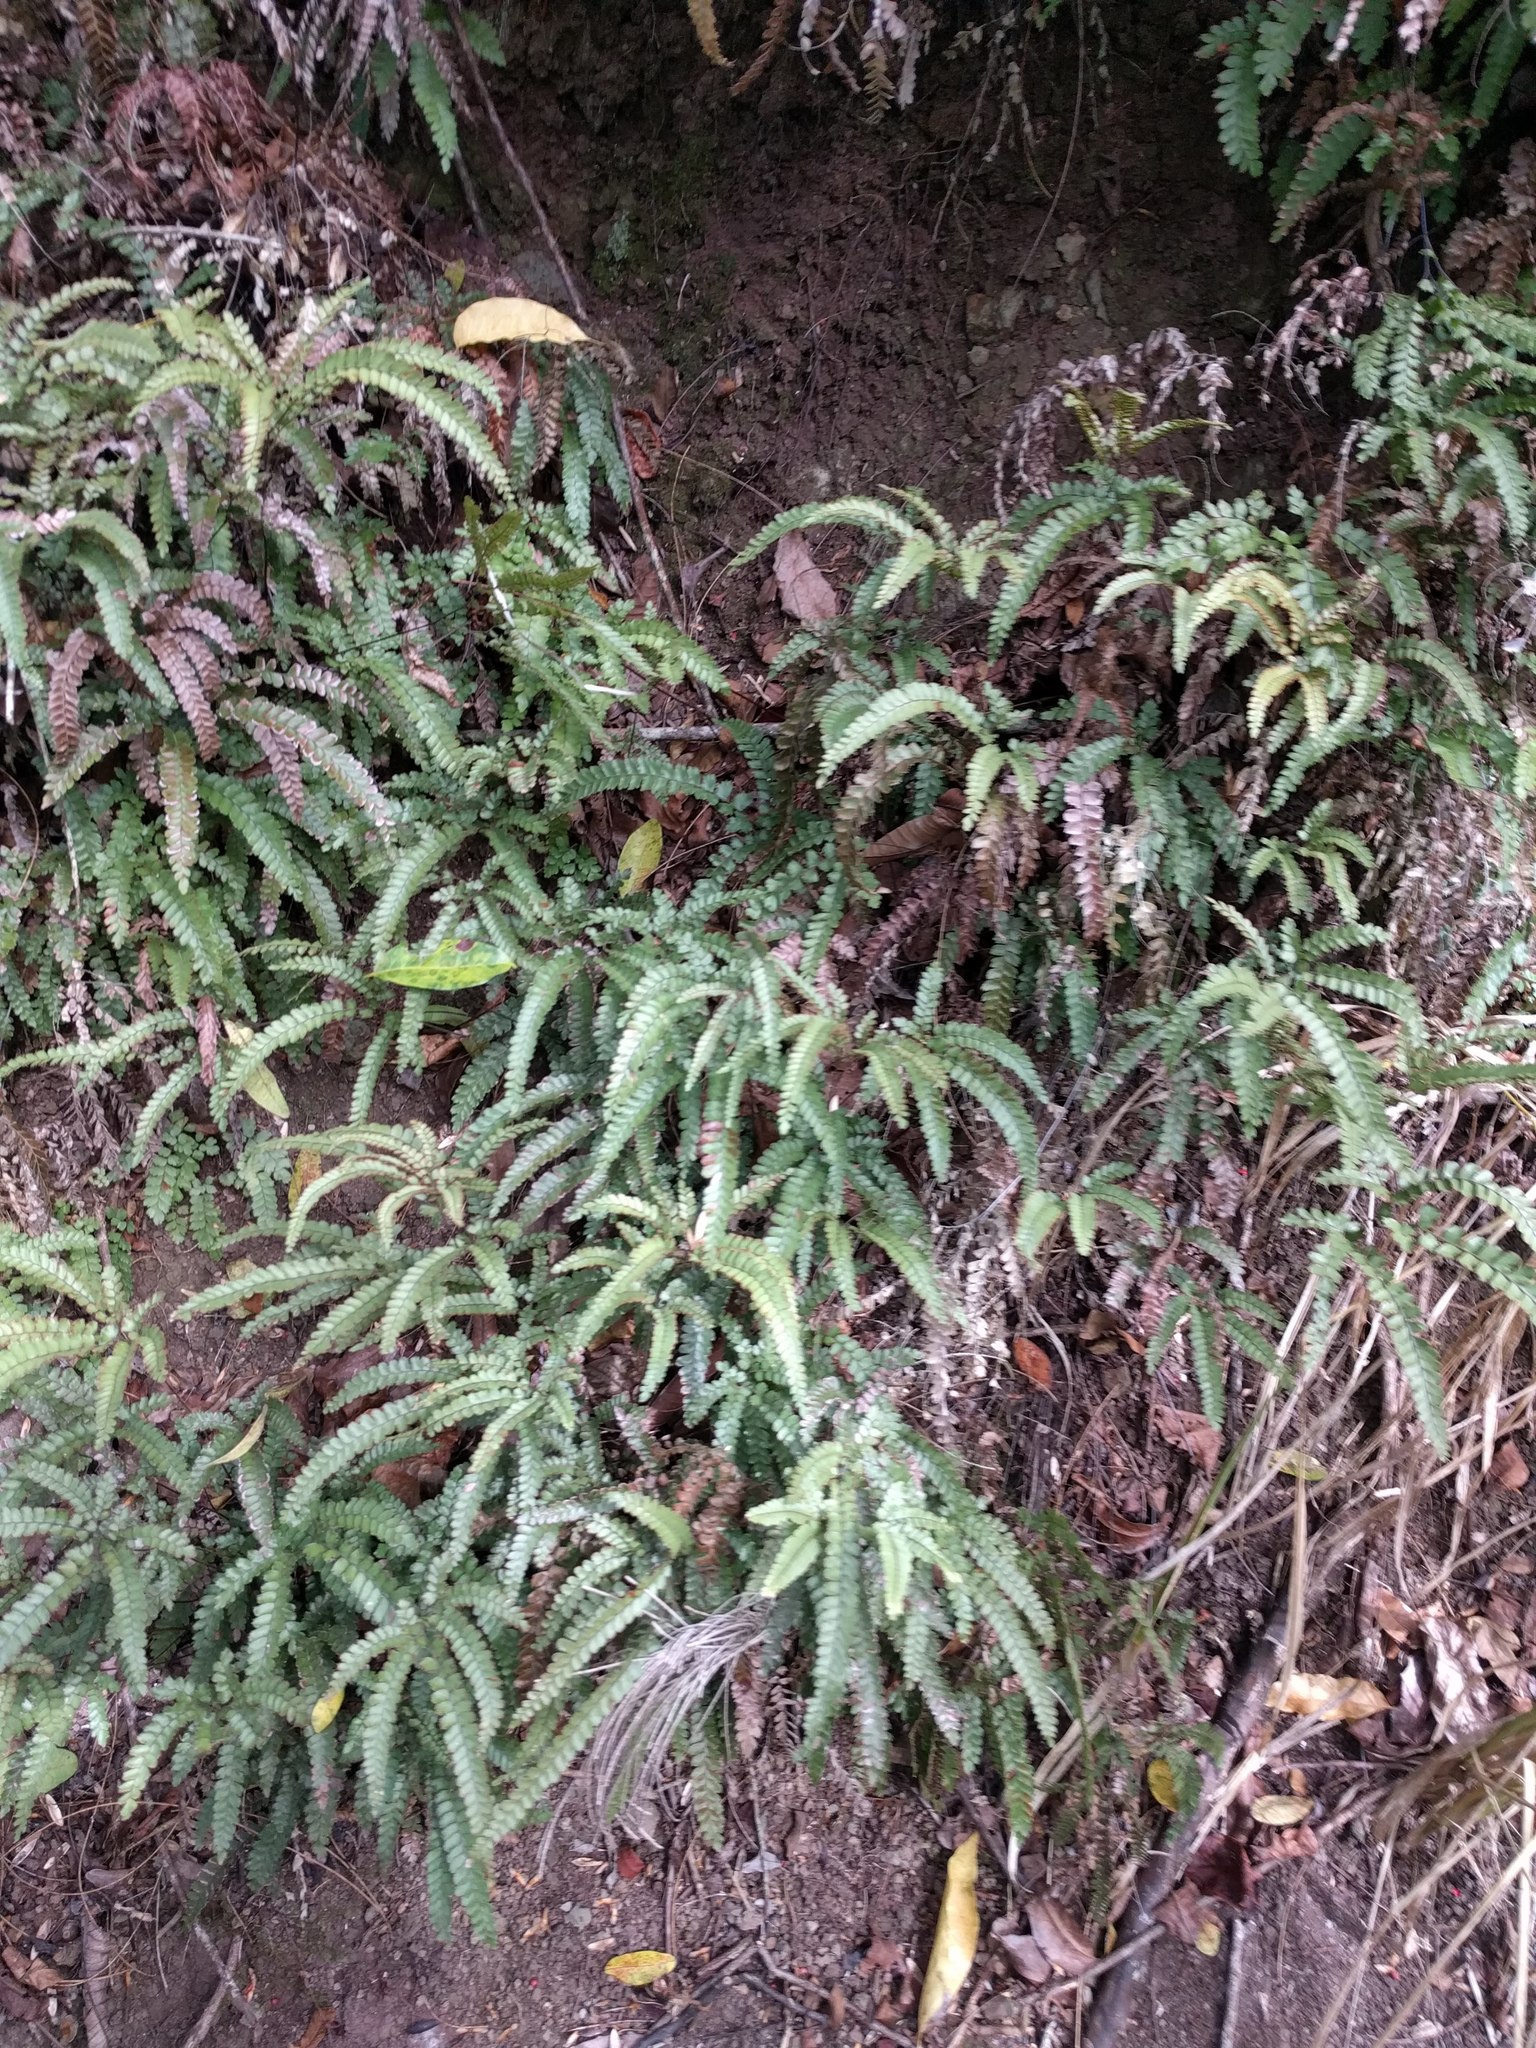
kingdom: Plantae
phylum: Tracheophyta
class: Polypodiopsida
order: Polypodiales
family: Pteridaceae
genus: Adiantum
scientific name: Adiantum hispidulum
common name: Rough maidenhair
